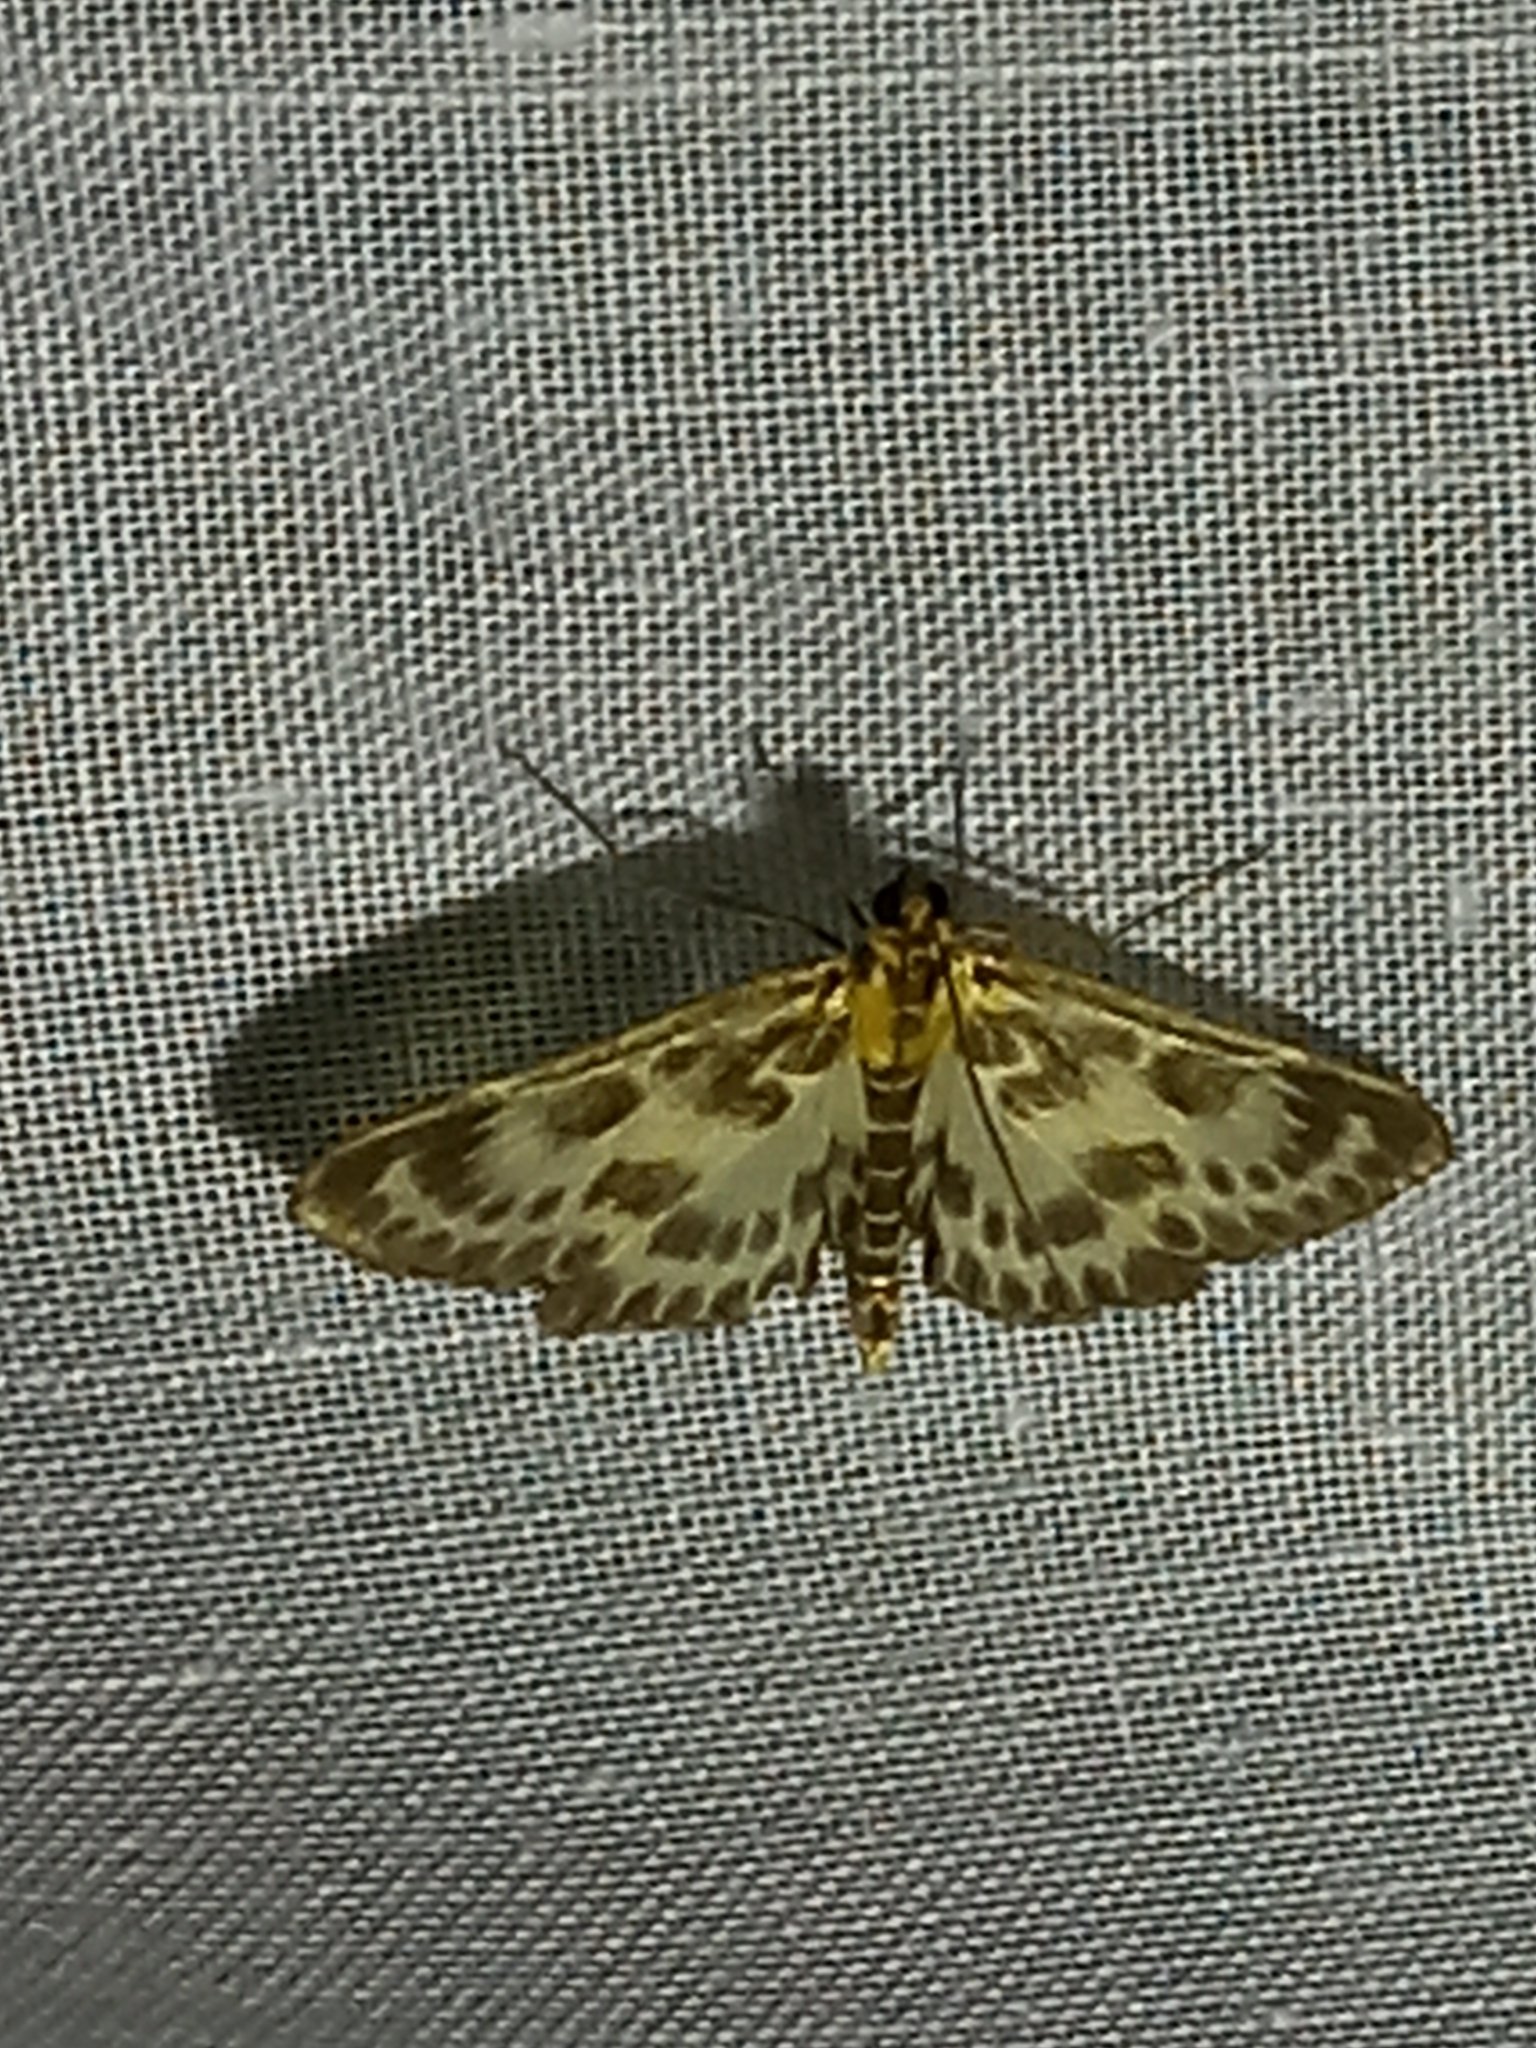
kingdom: Animalia
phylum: Arthropoda
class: Insecta
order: Lepidoptera
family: Crambidae
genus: Anania
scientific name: Anania hortulata
